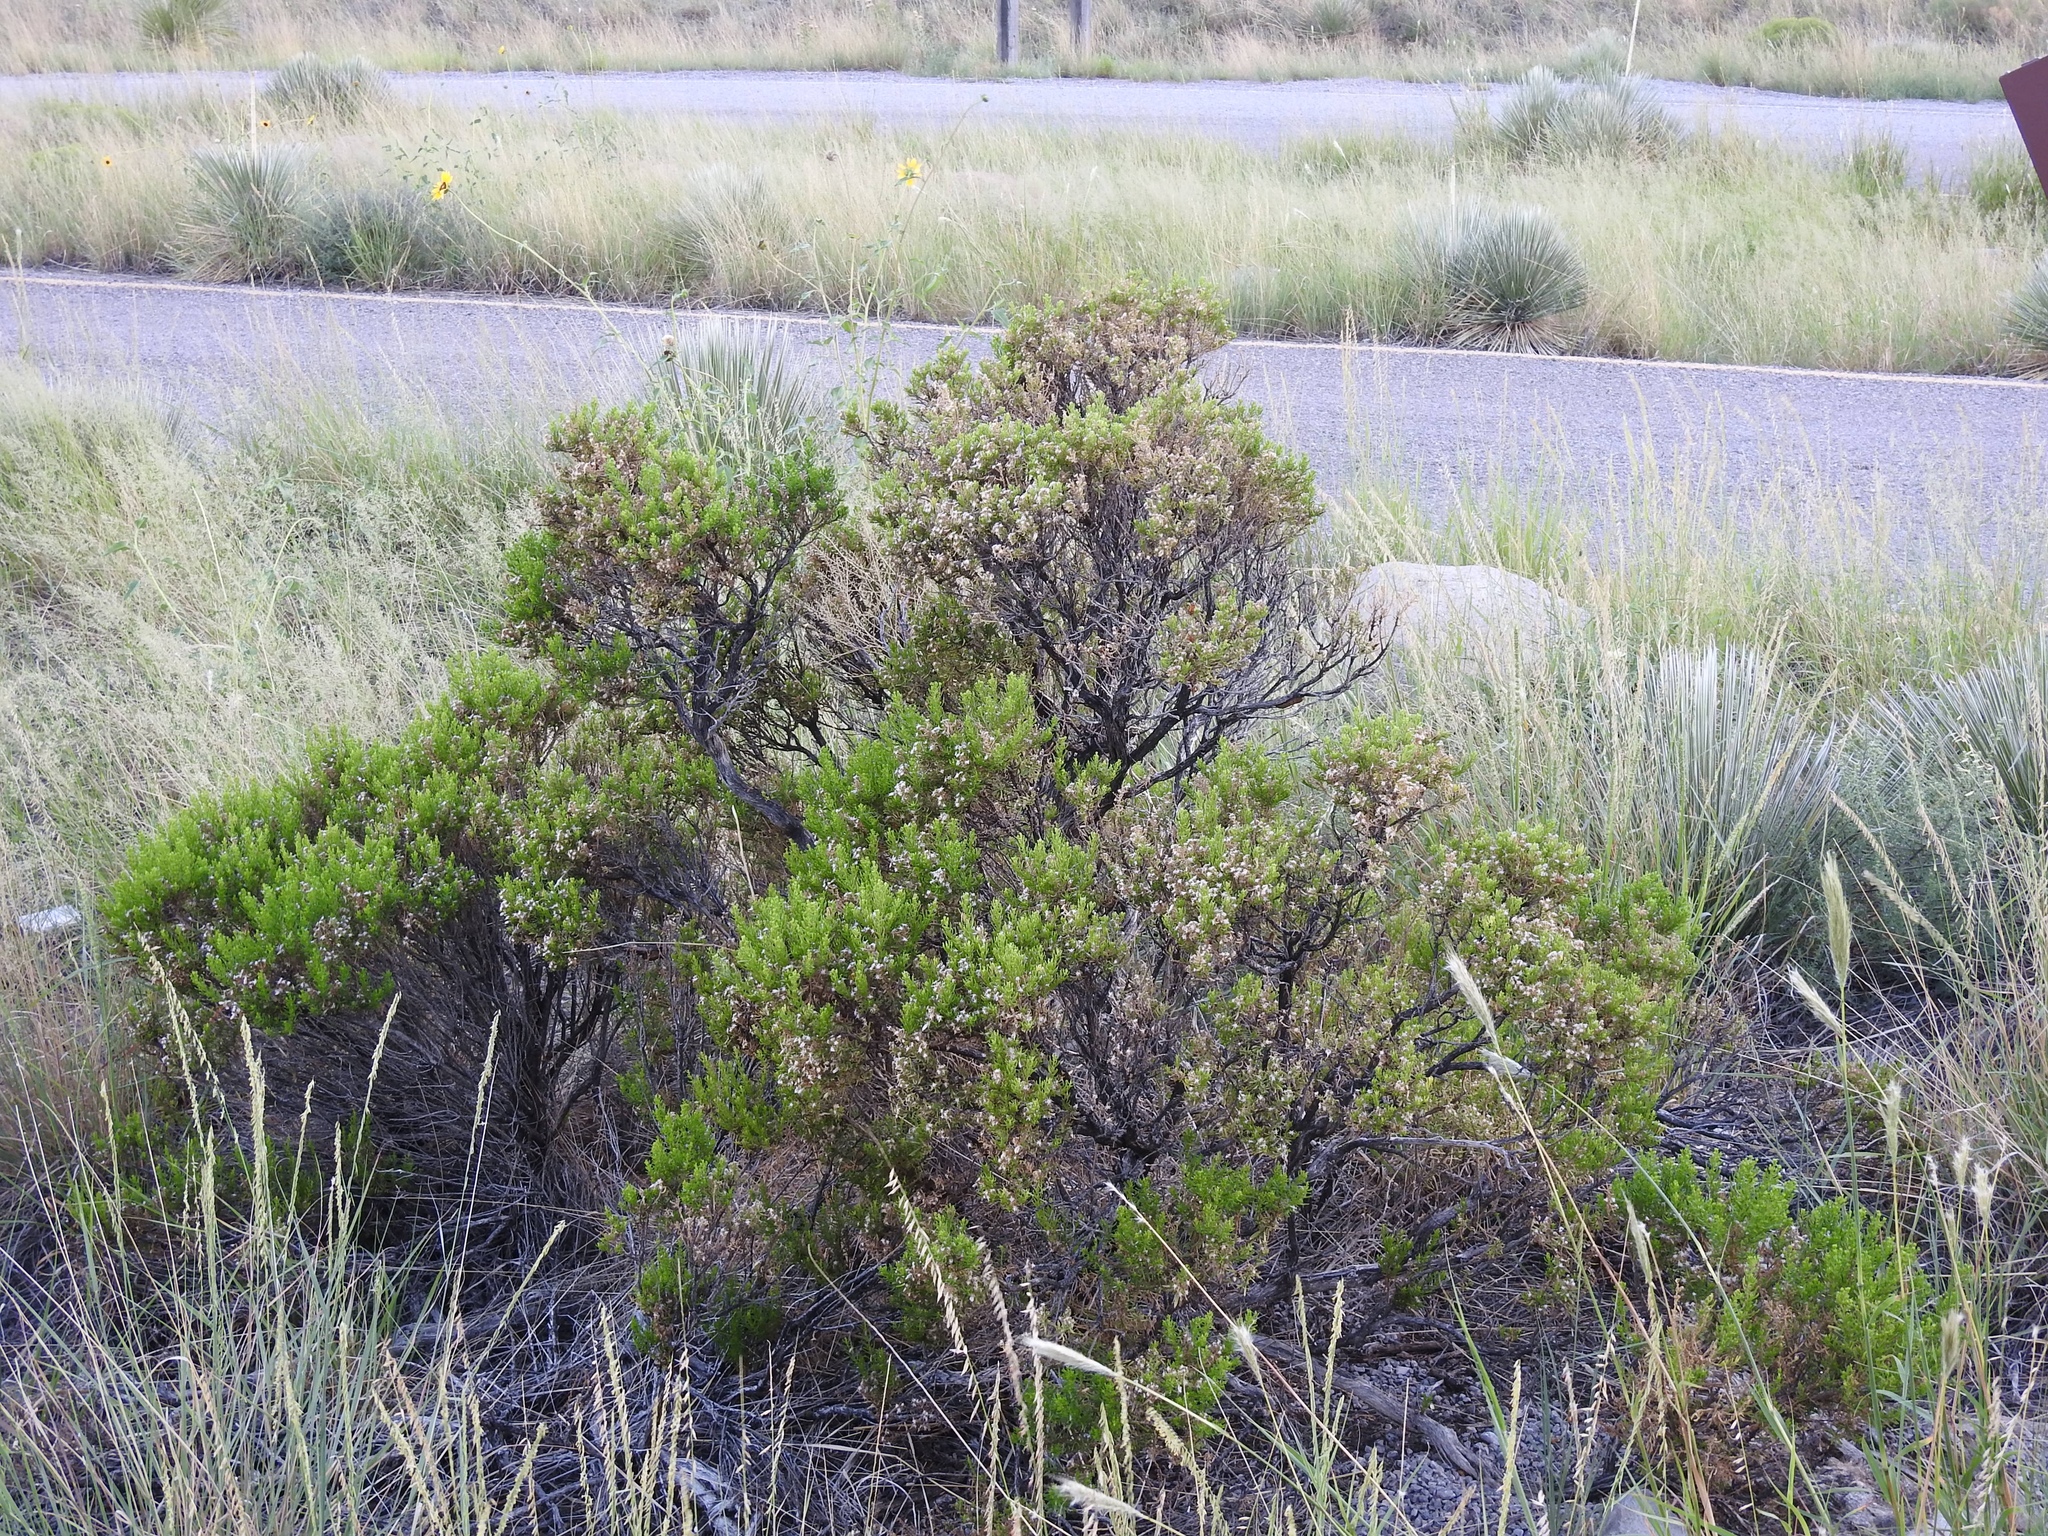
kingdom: Plantae
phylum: Tracheophyta
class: Magnoliopsida
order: Asterales
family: Asteraceae
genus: Ericameria
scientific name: Ericameria laricifolia
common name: Turpentine-bush
